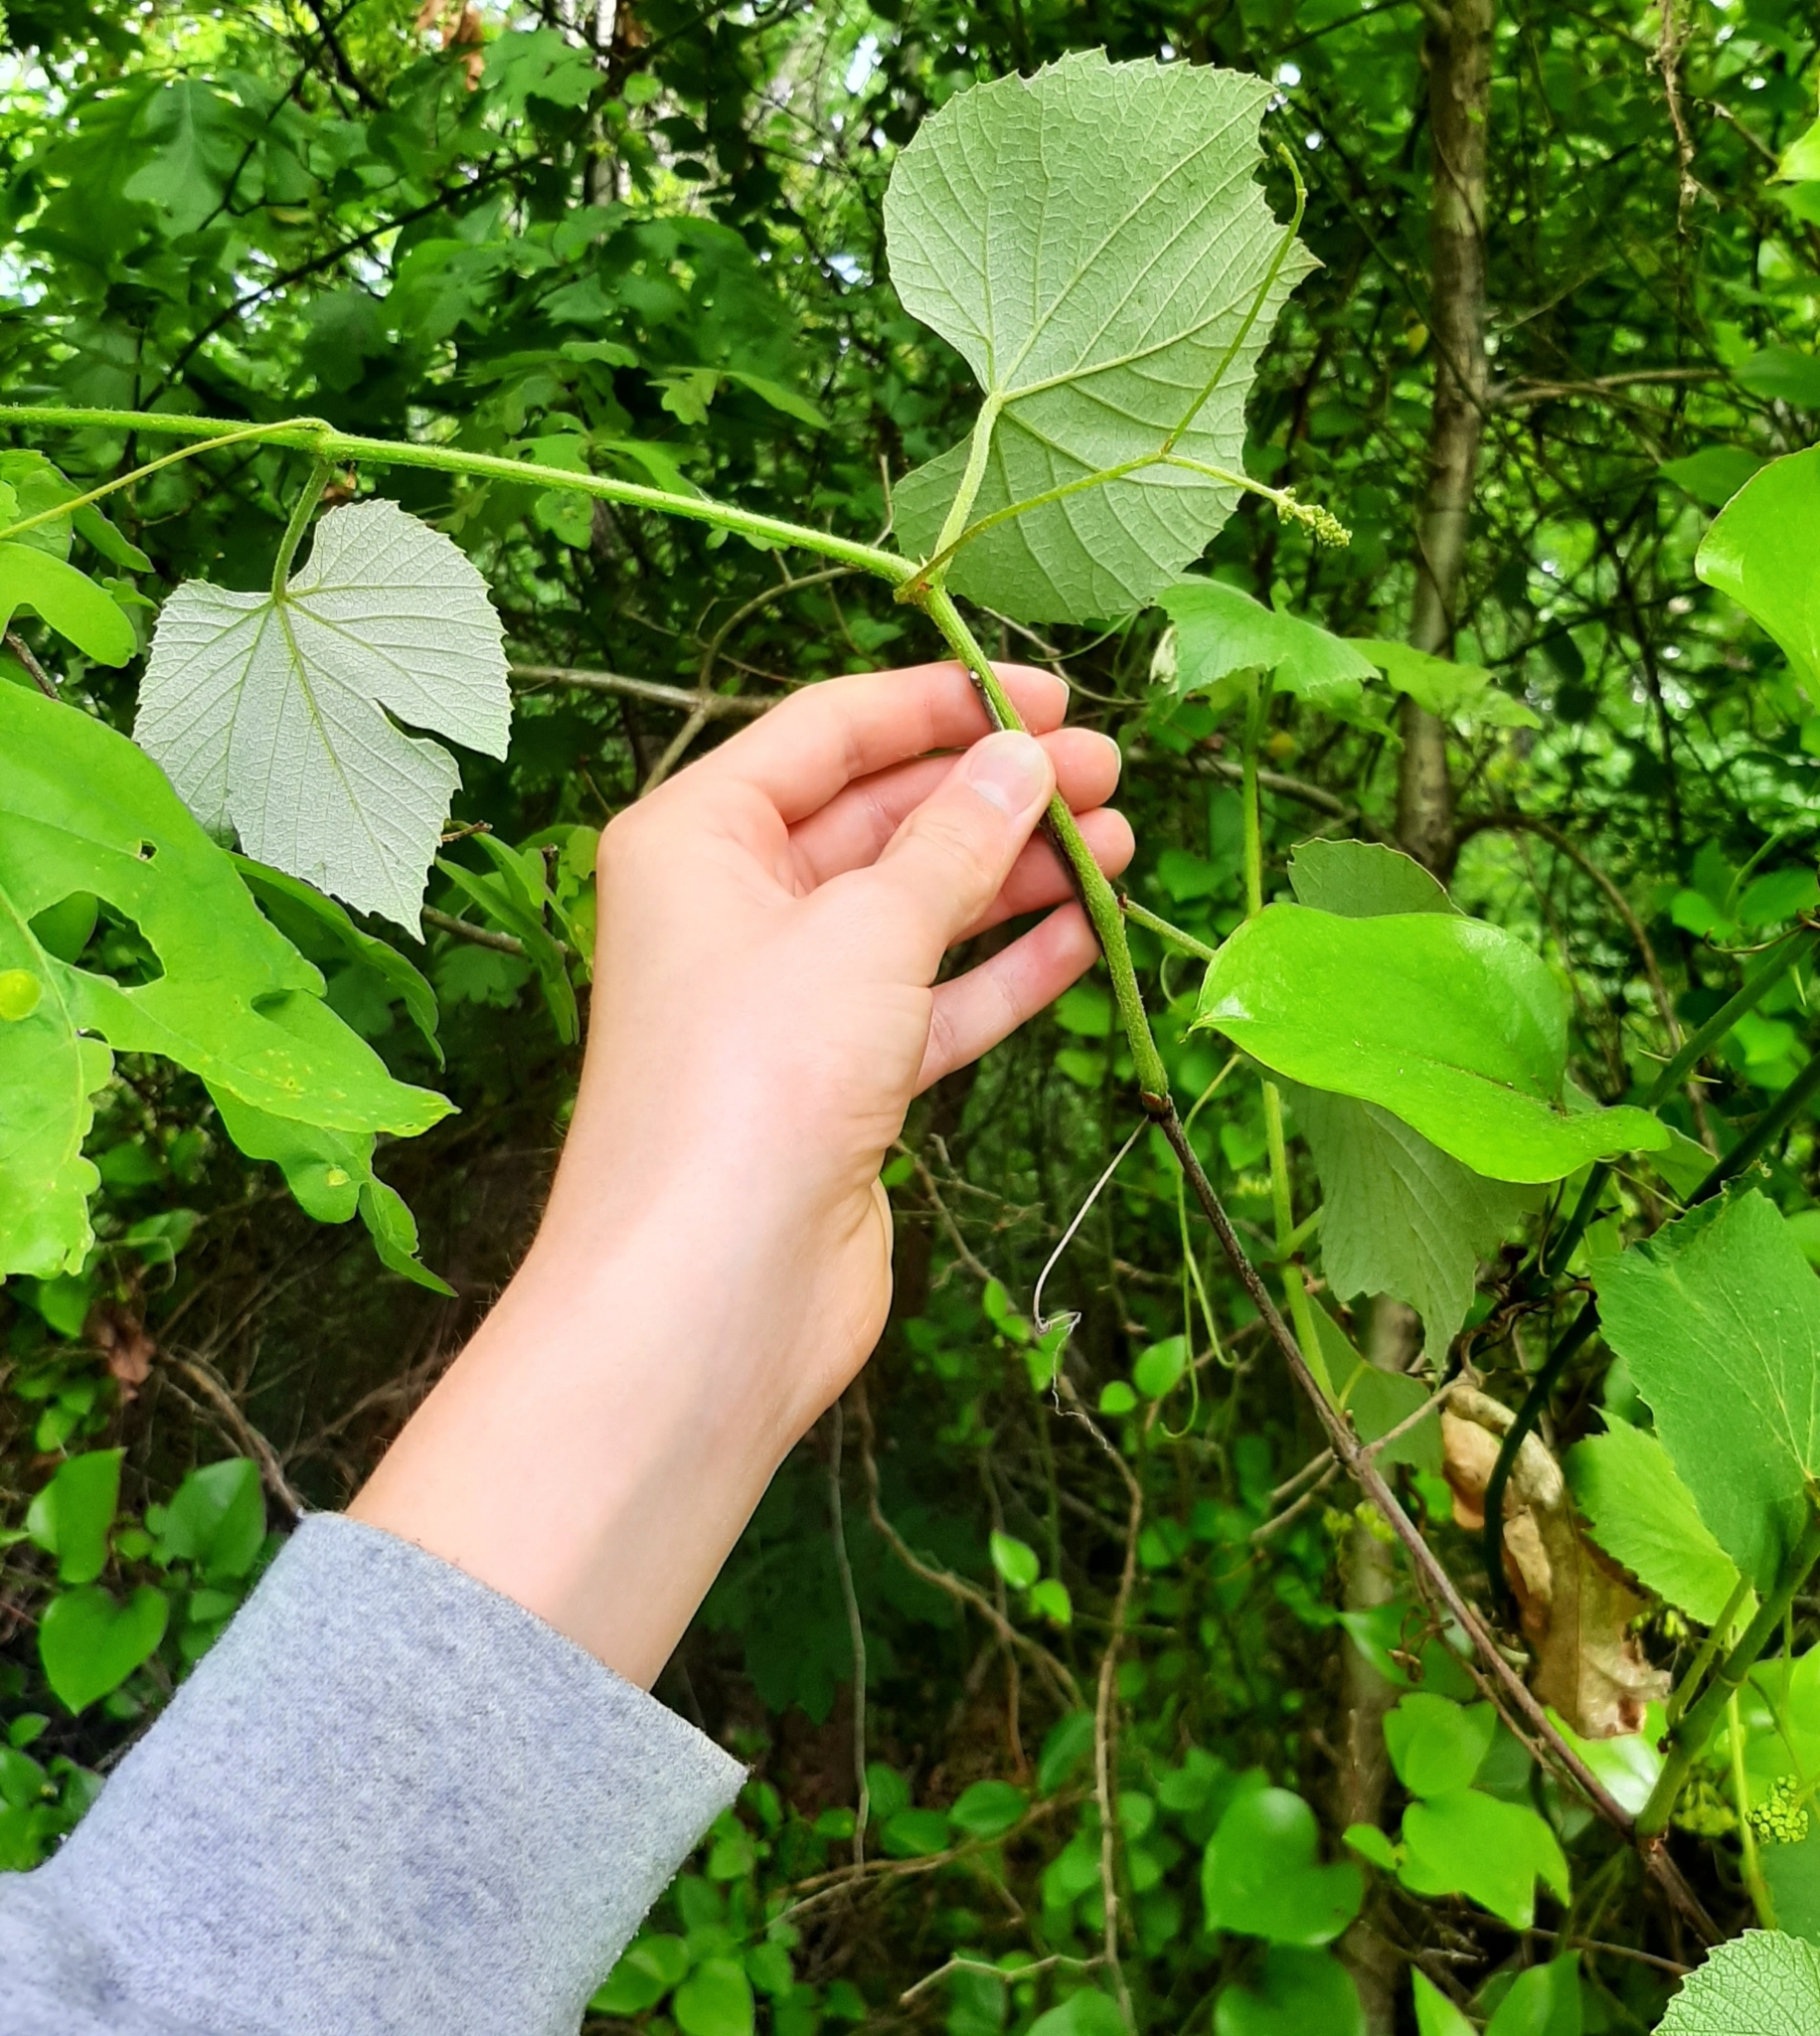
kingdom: Plantae
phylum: Tracheophyta
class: Magnoliopsida
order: Vitales
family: Vitaceae
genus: Vitis
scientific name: Vitis labrusca
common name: Concord grape
